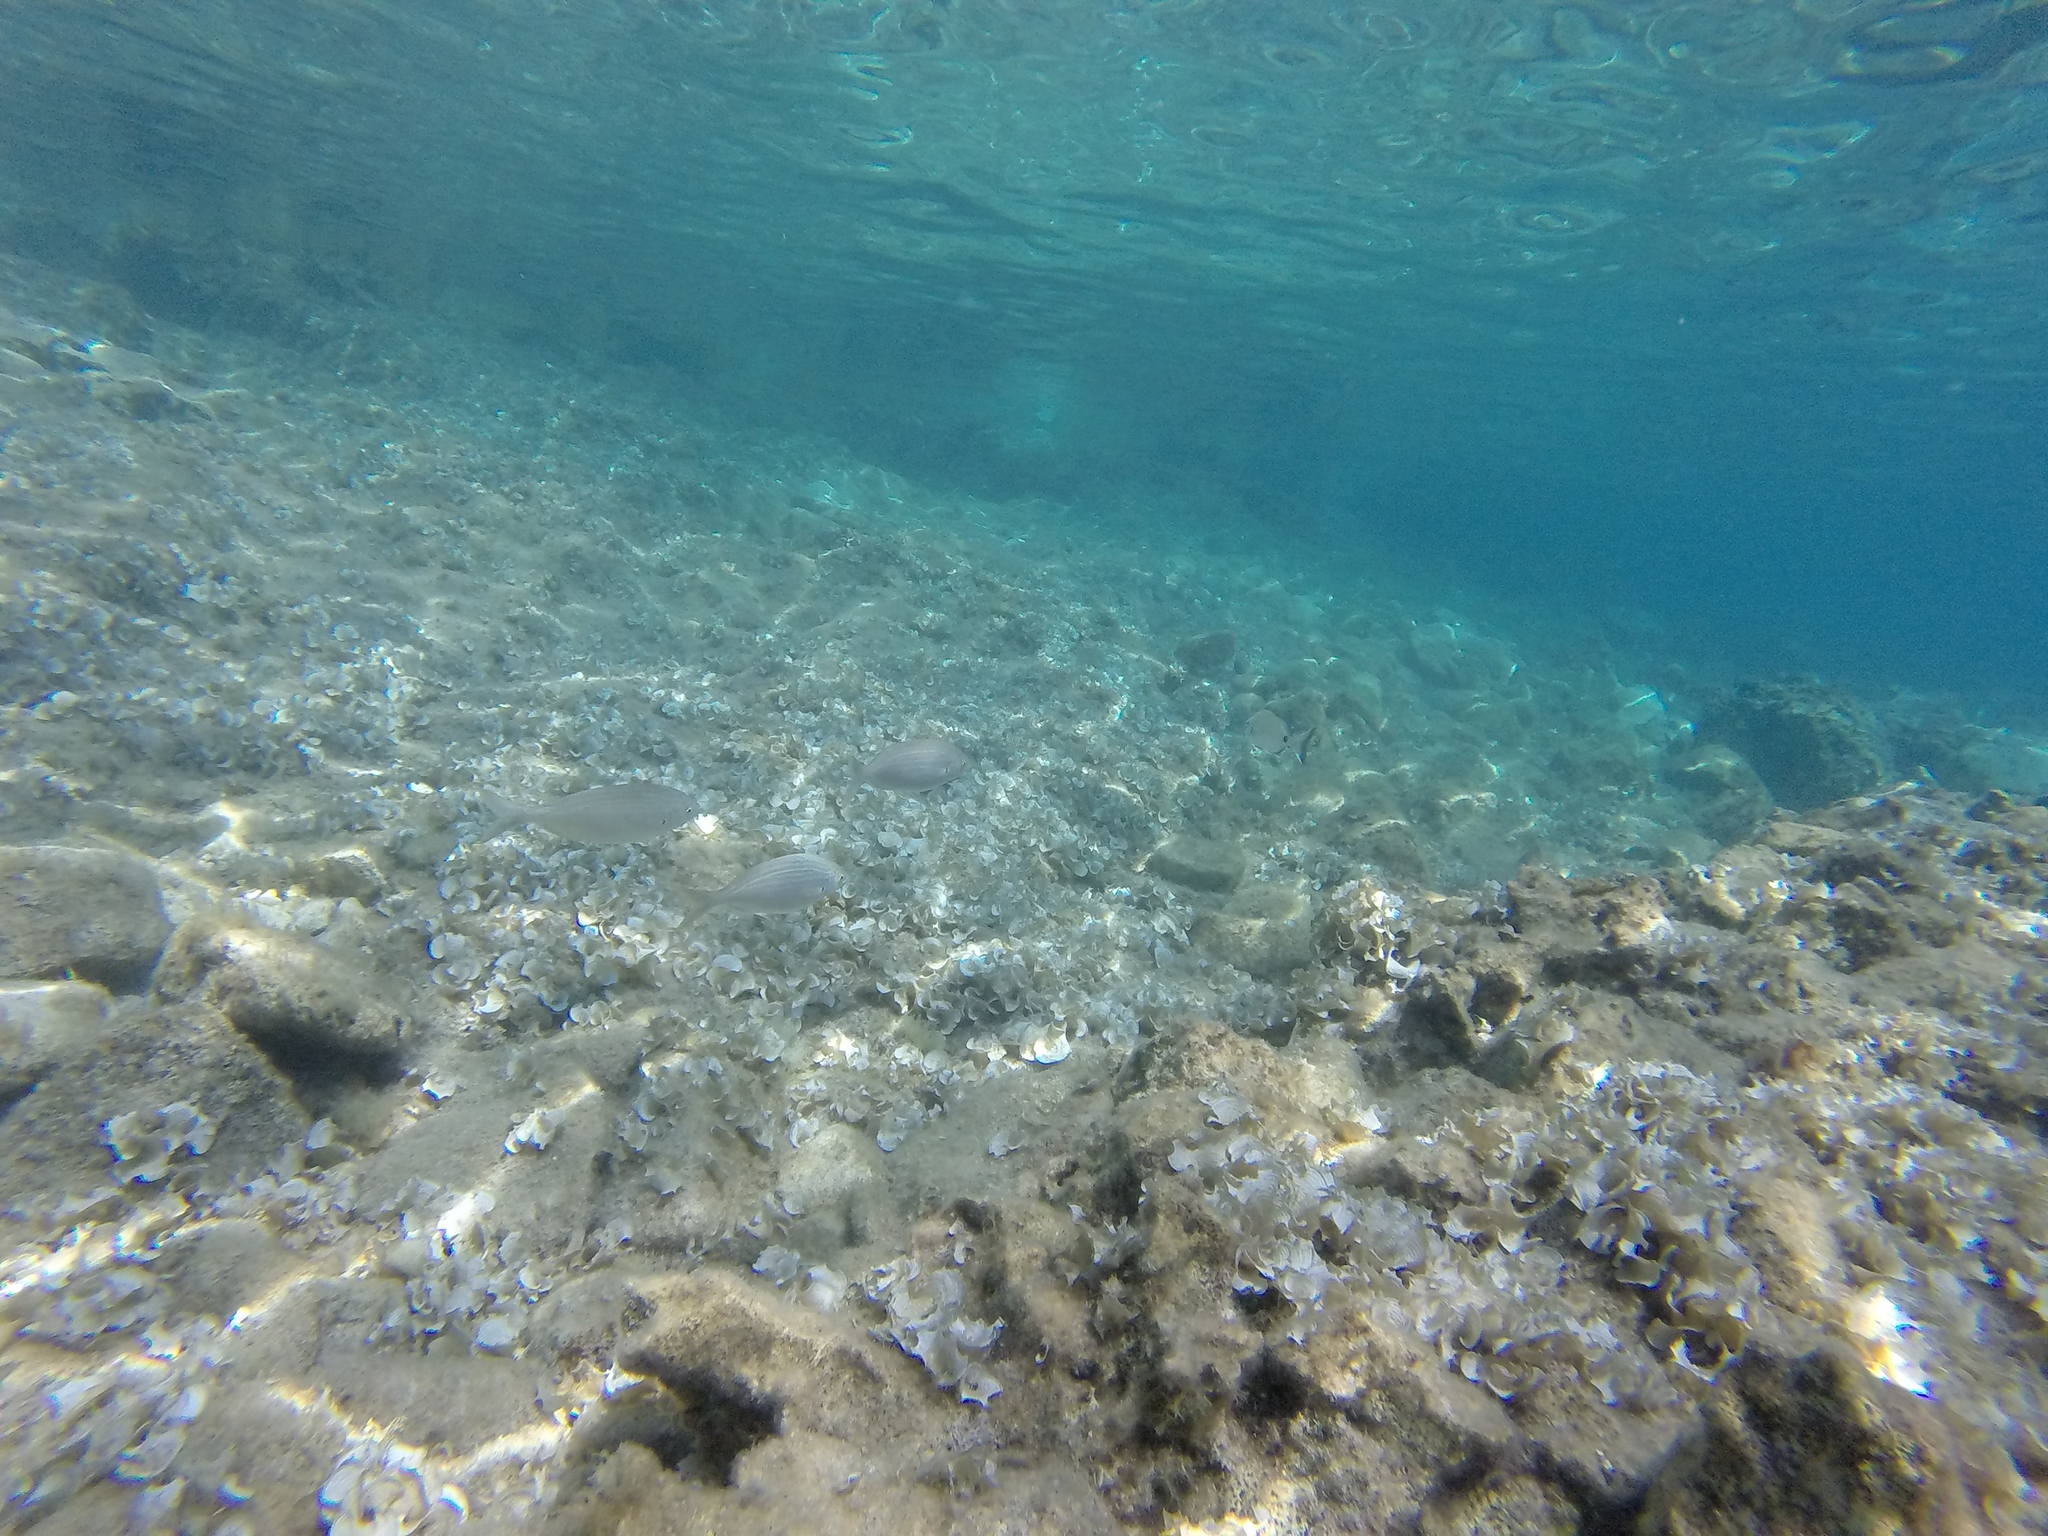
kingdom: Animalia
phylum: Chordata
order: Perciformes
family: Sparidae
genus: Sarpa
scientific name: Sarpa salpa
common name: Salema
